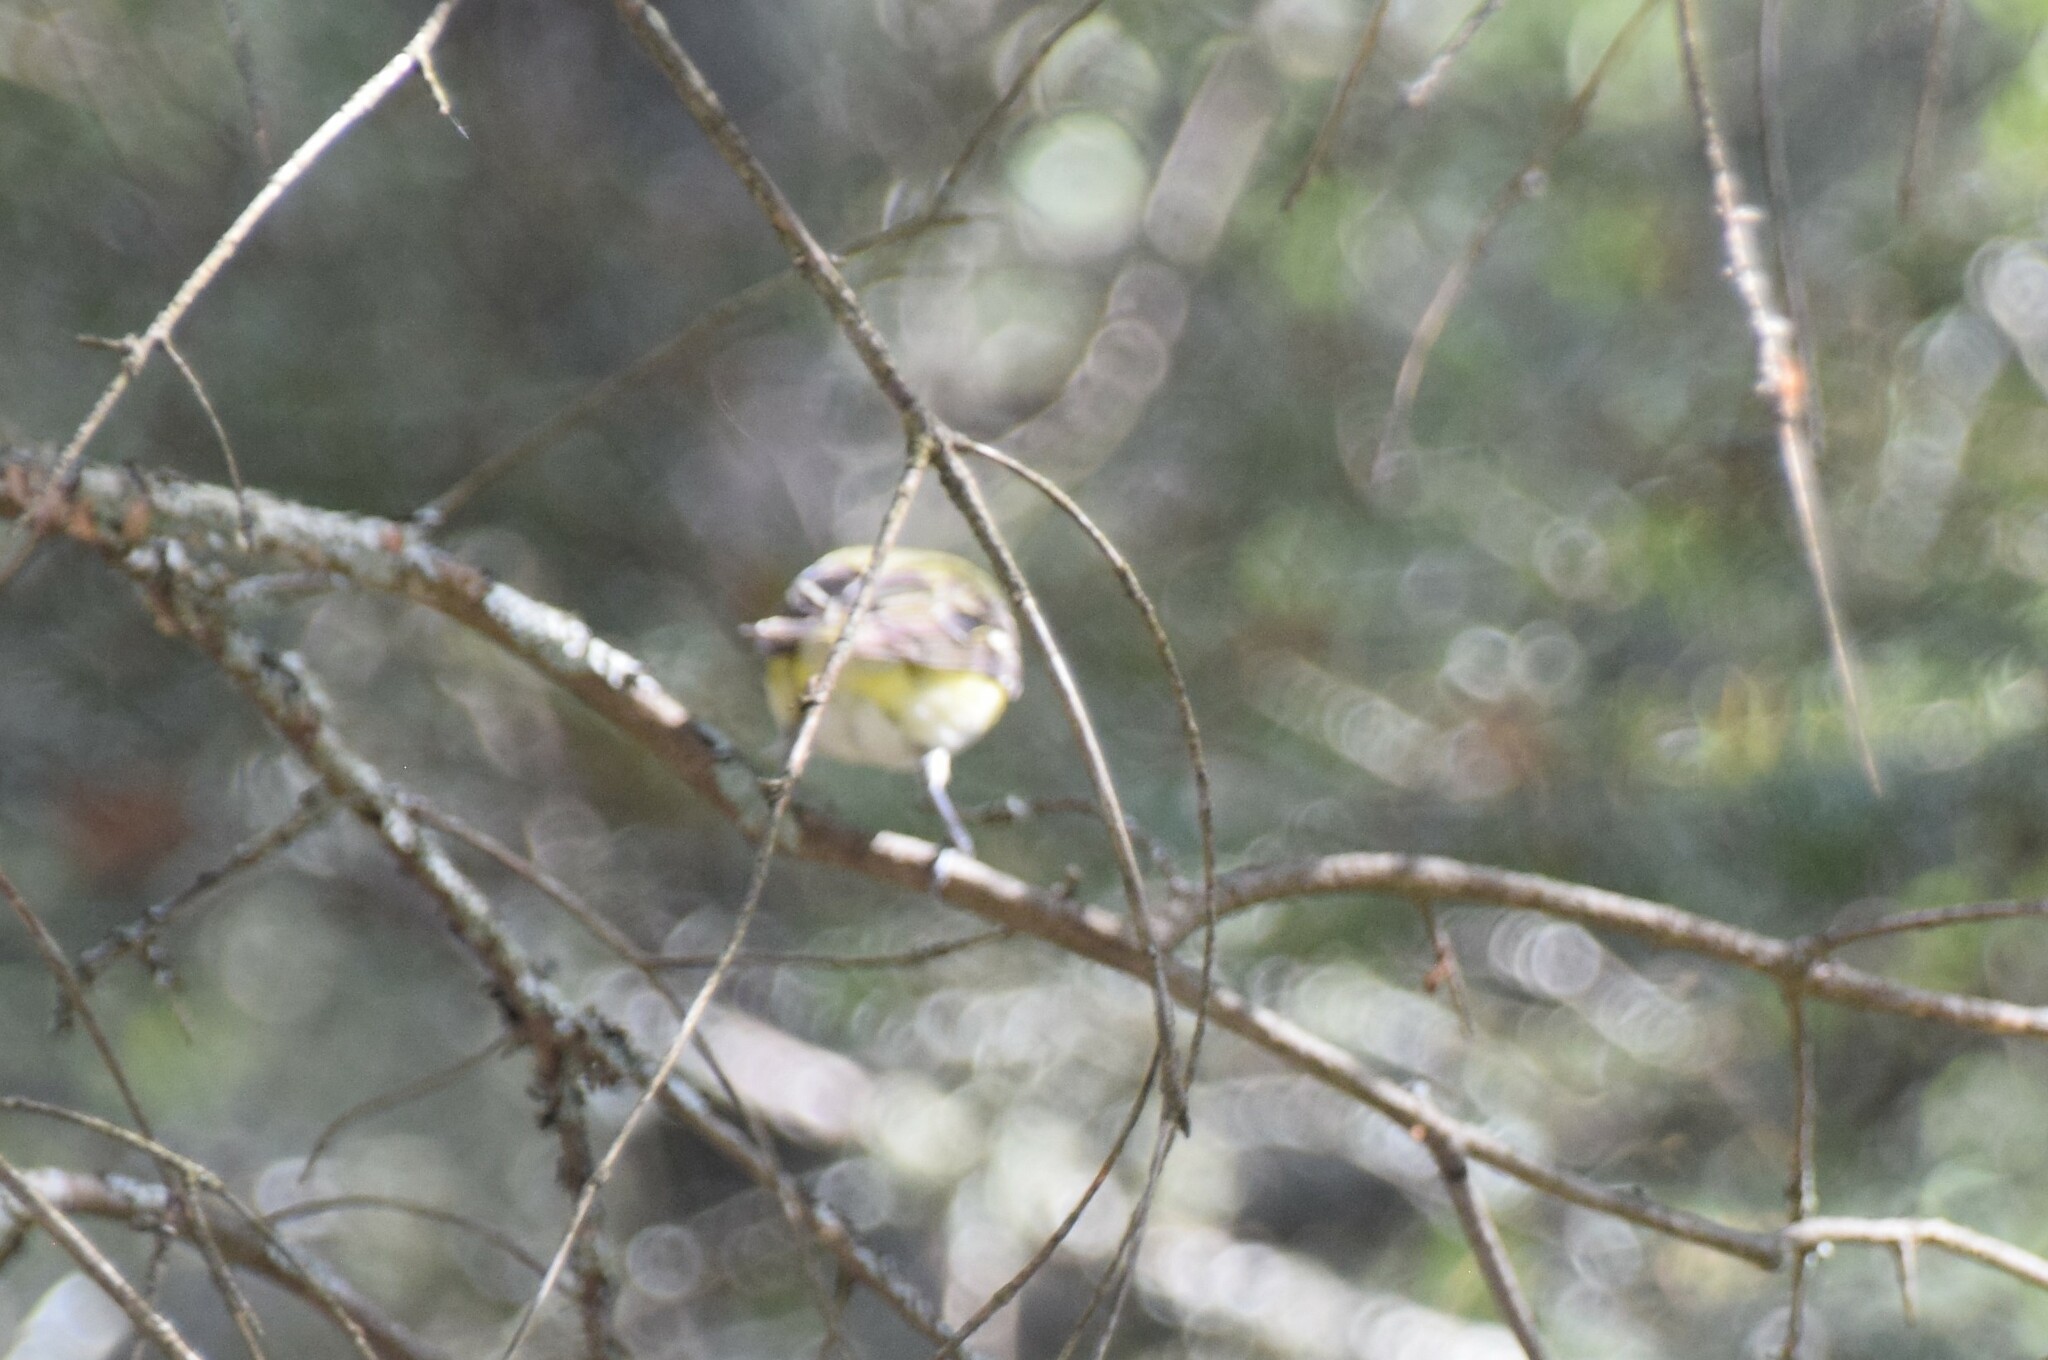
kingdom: Animalia
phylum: Chordata
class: Aves
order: Passeriformes
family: Vireonidae
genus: Vireo
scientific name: Vireo solitarius
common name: Blue-headed vireo
